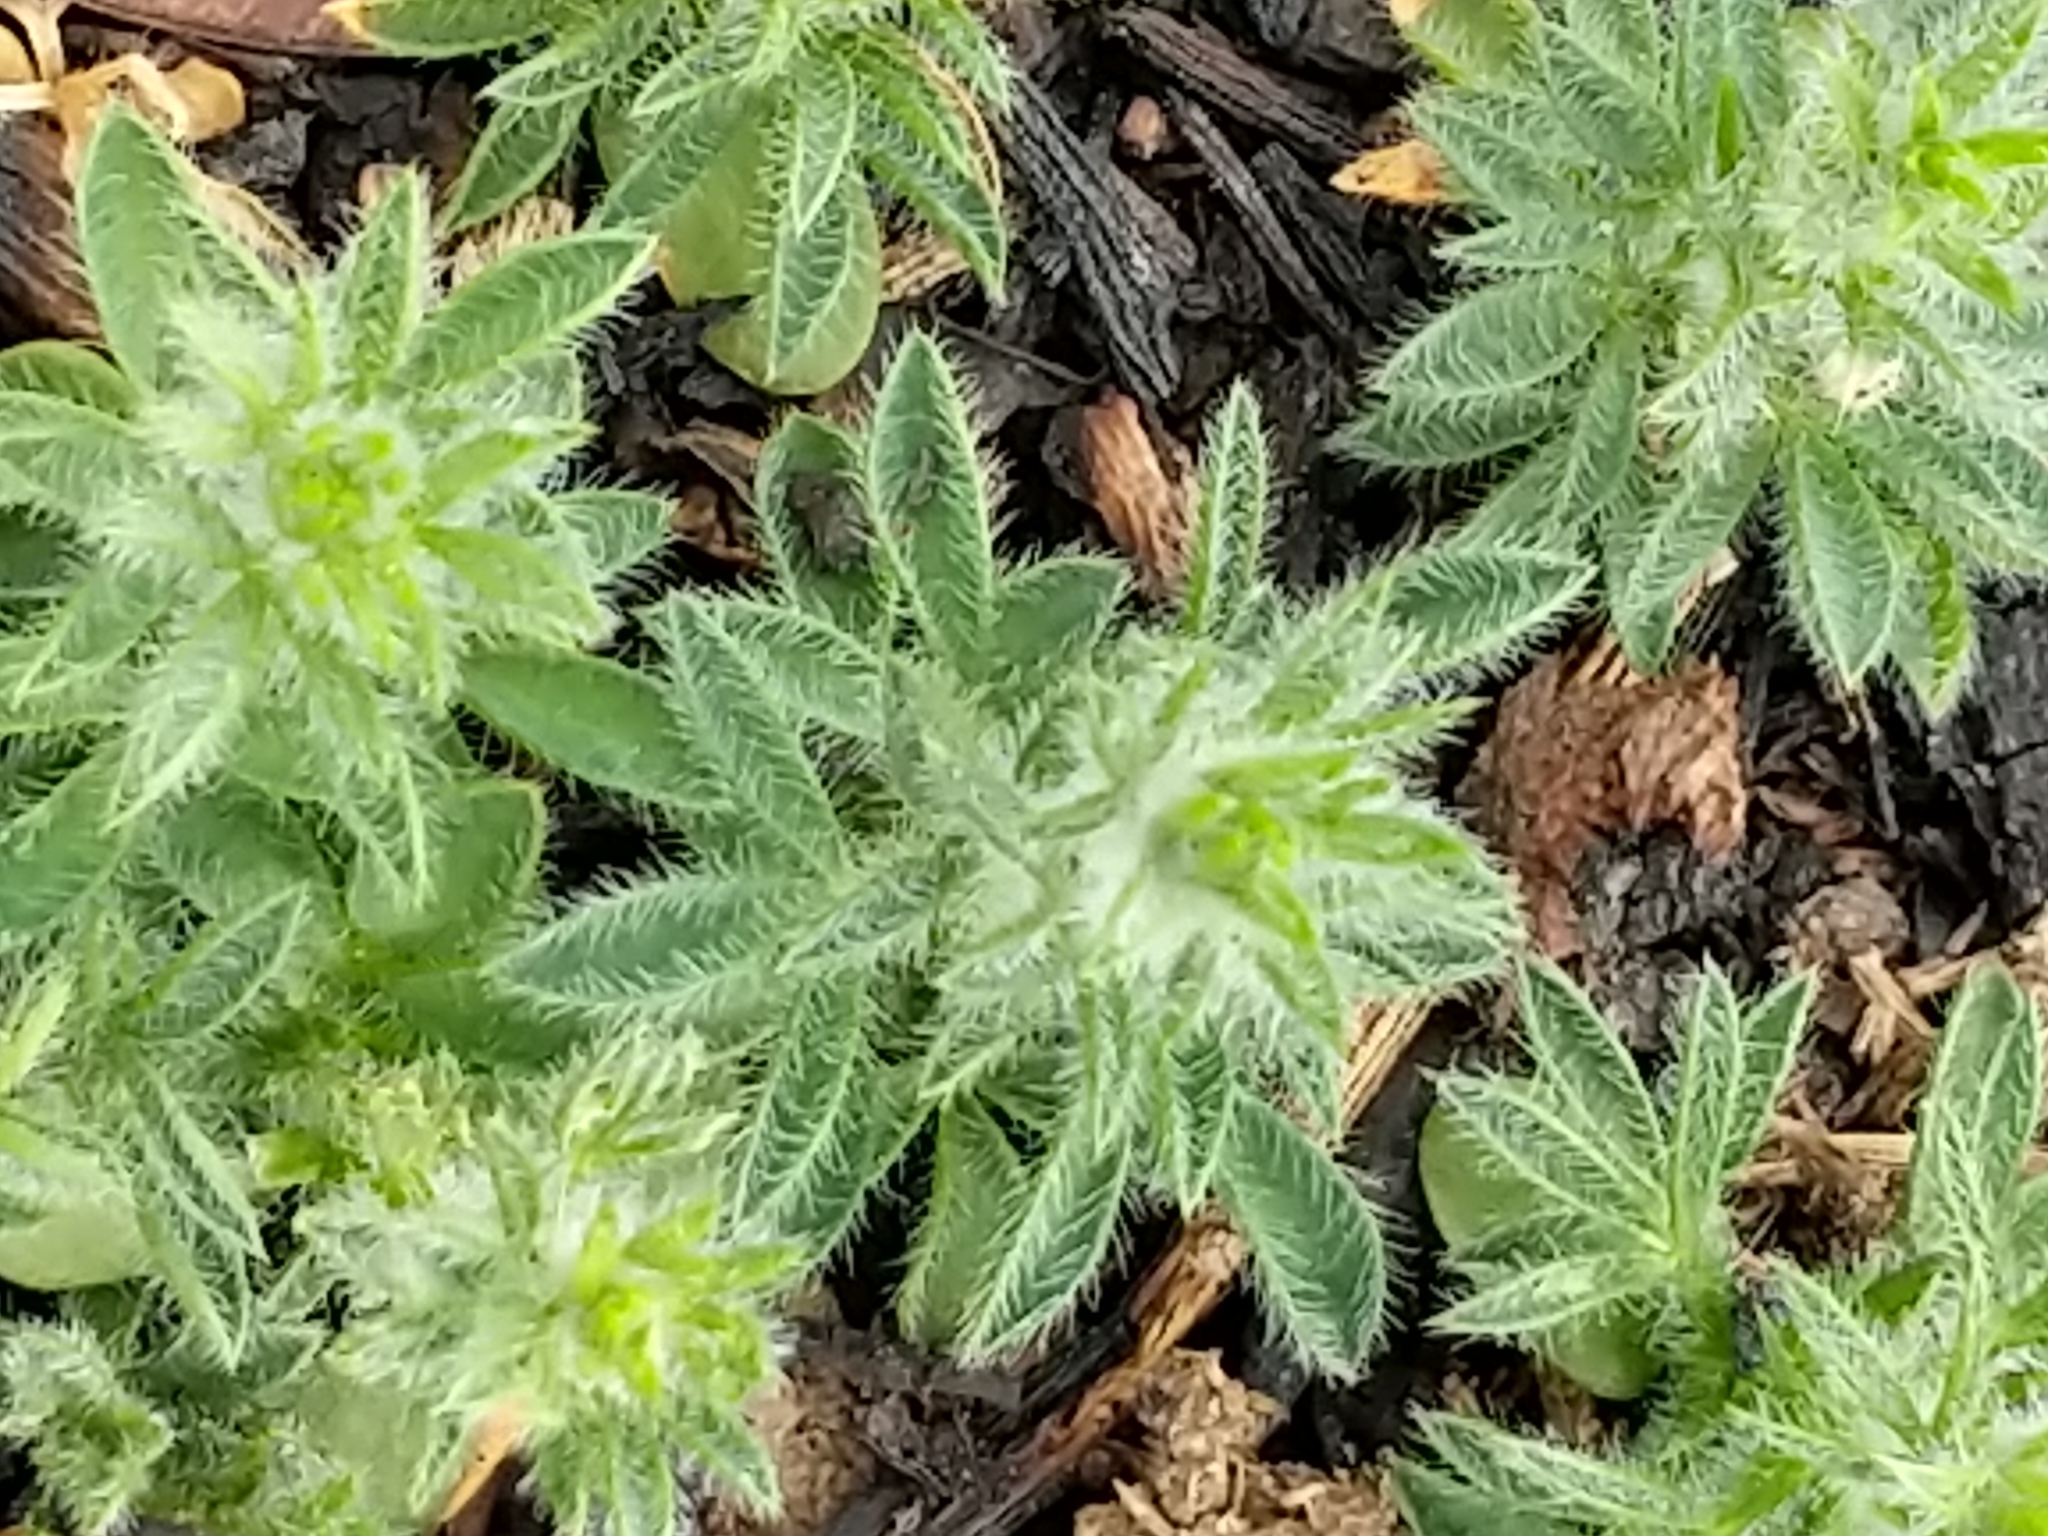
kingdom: Plantae
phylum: Tracheophyta
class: Magnoliopsida
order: Fabales
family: Fabaceae
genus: Ulex
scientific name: Ulex europaeus
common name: Common gorse
